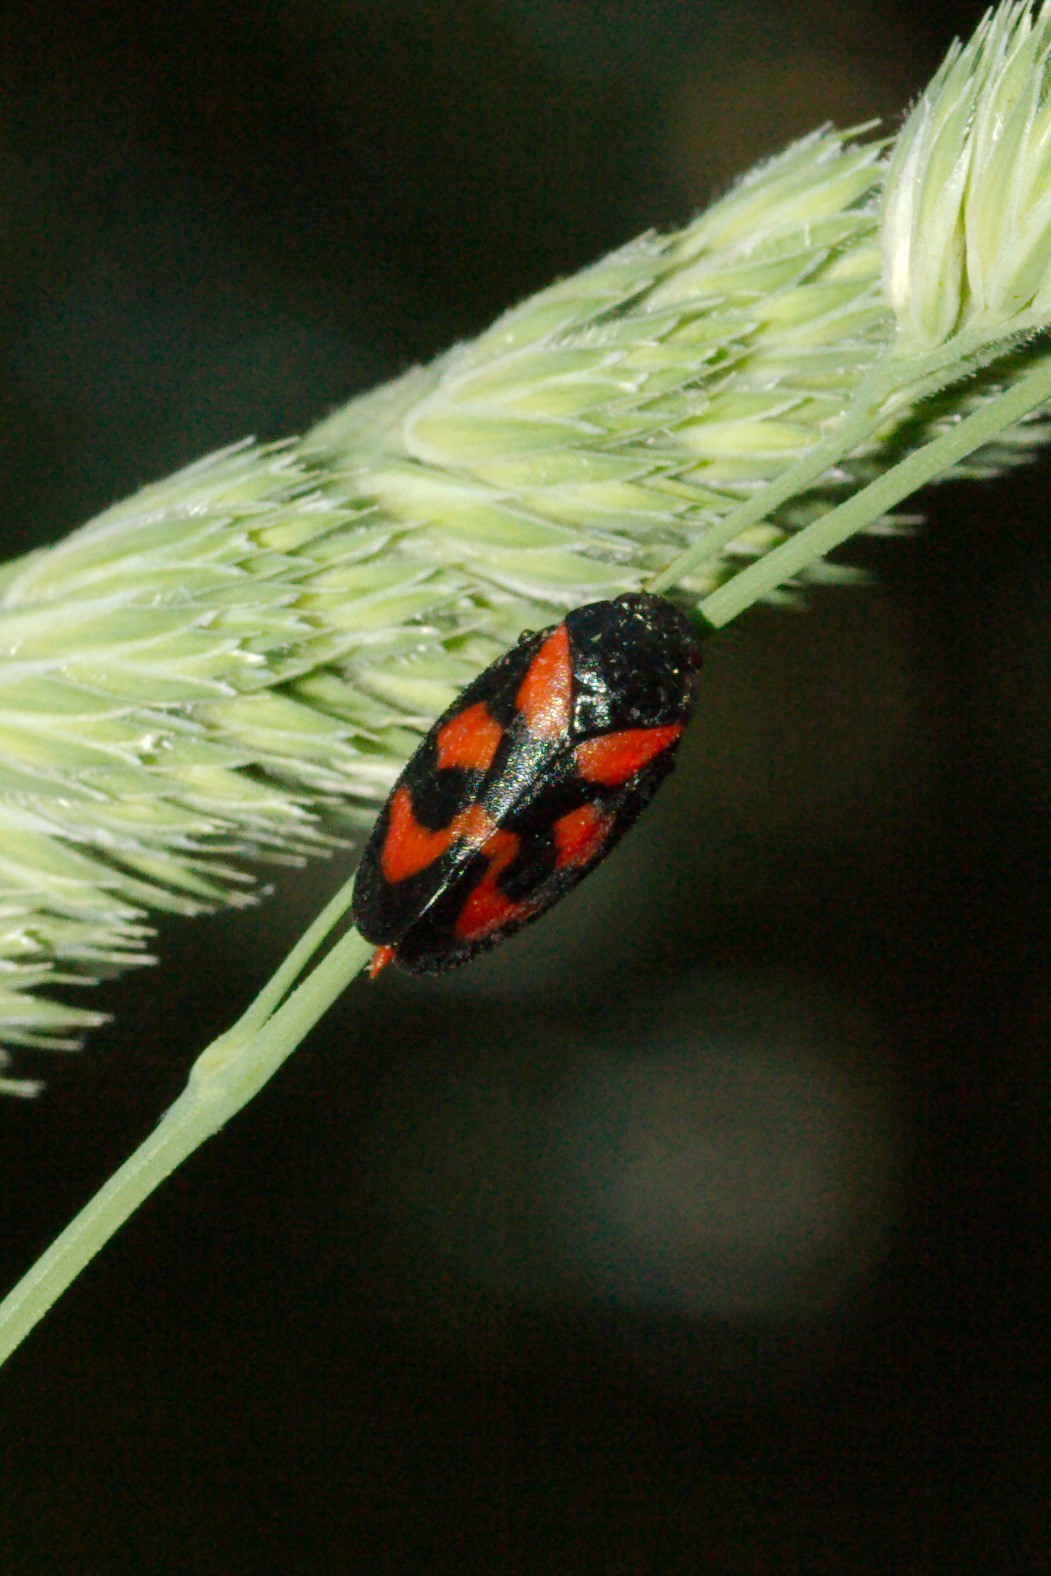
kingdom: Animalia
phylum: Arthropoda
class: Insecta
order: Hemiptera
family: Cercopidae
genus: Cercopis
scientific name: Cercopis vulnerata
